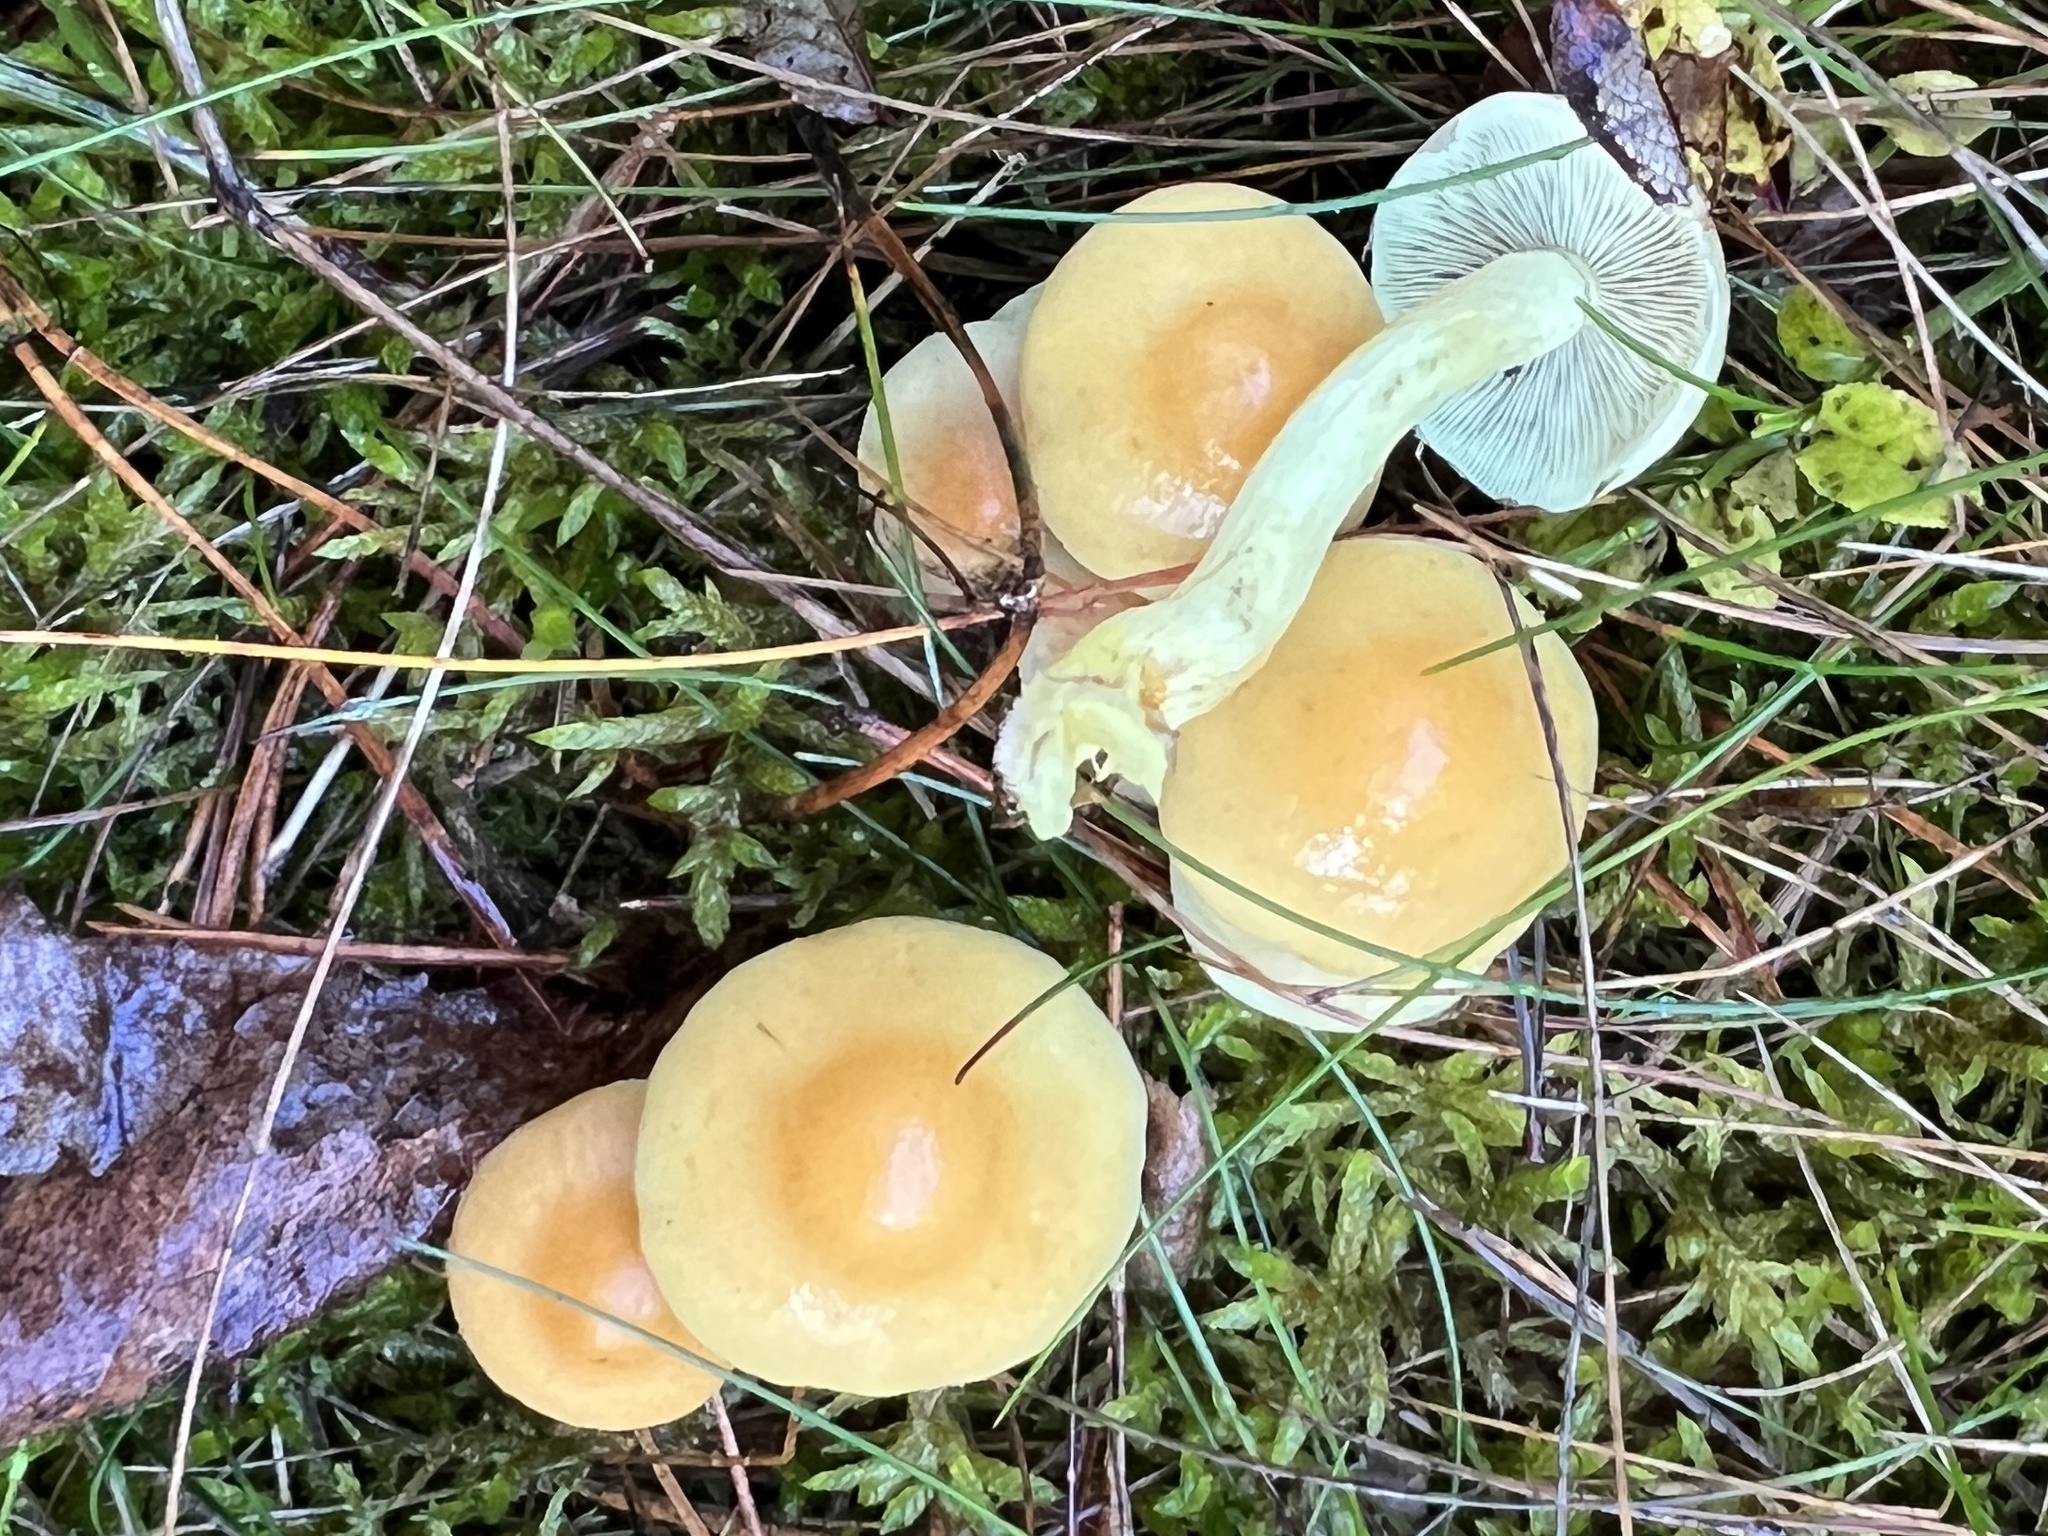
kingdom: Fungi
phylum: Basidiomycota
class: Agaricomycetes
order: Agaricales
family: Strophariaceae
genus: Hypholoma
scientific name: Hypholoma fasciculare
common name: Sulphur tuft
